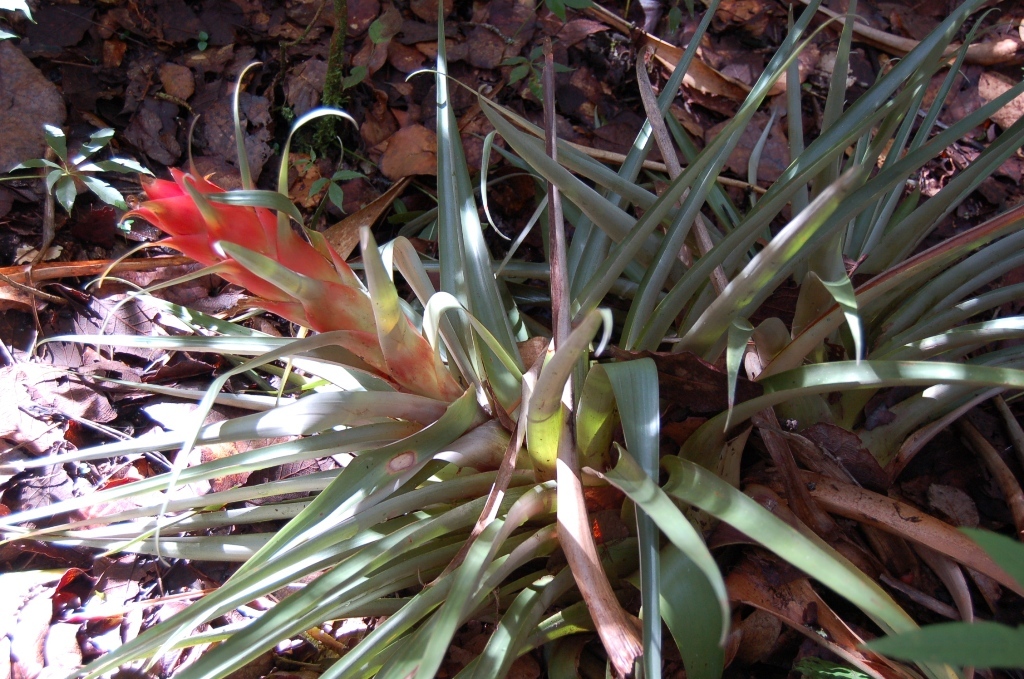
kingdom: Plantae
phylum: Tracheophyta
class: Liliopsida
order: Poales
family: Bromeliaceae
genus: Tillandsia
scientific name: Tillandsia ponderosa
